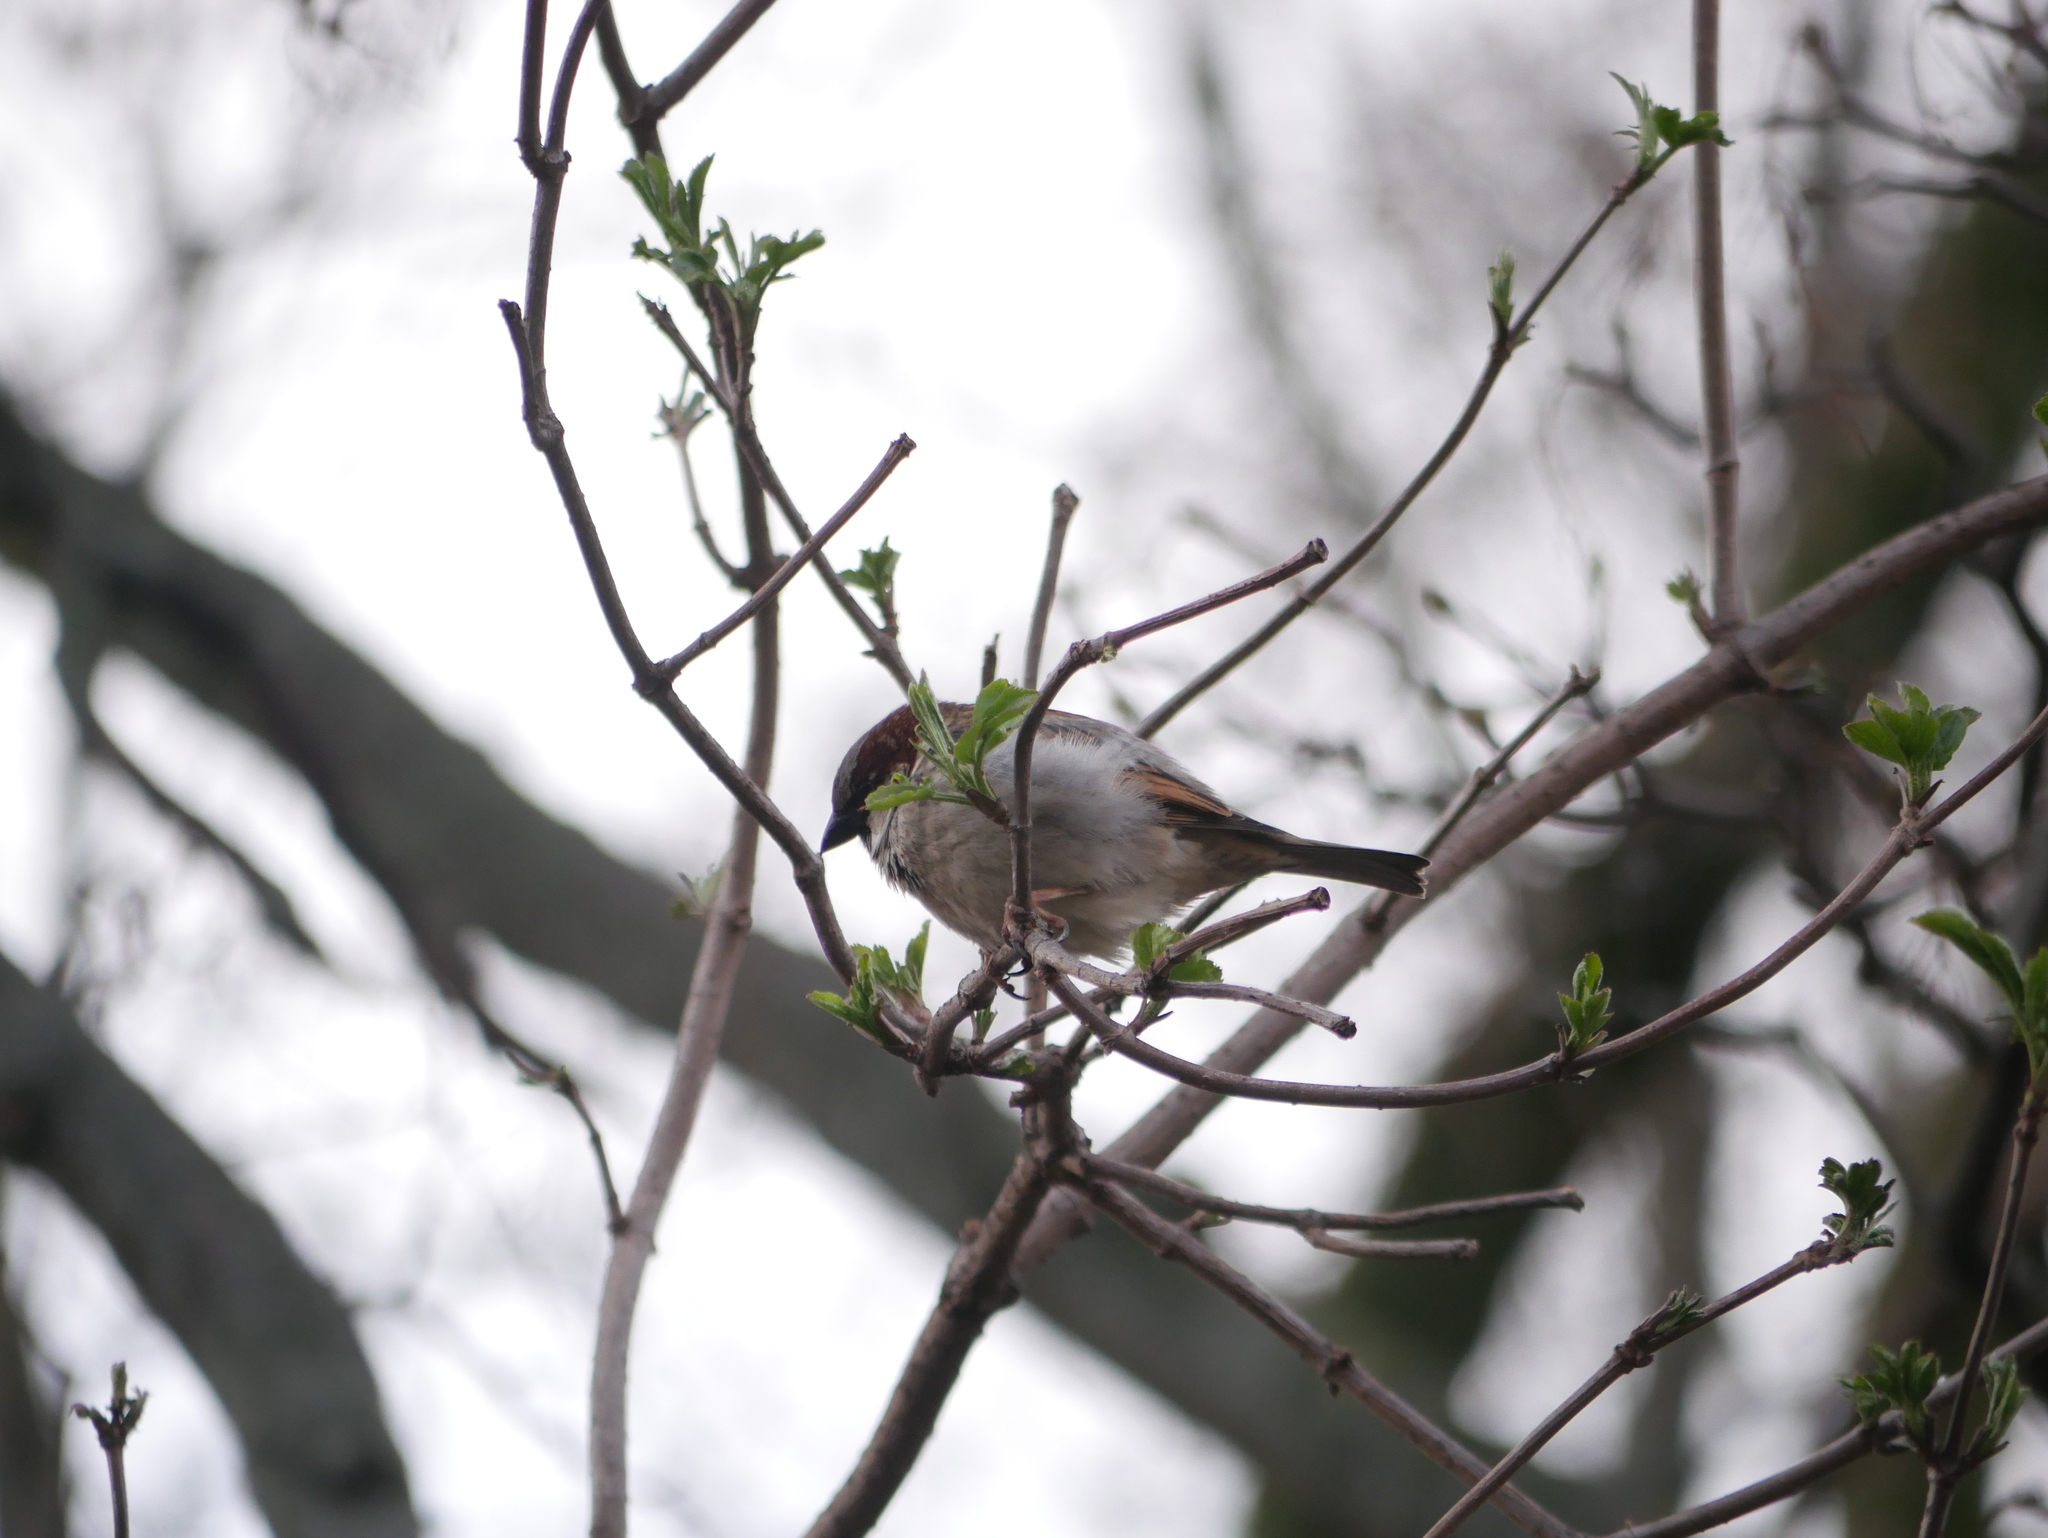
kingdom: Animalia
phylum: Chordata
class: Aves
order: Passeriformes
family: Passeridae
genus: Passer
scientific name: Passer domesticus
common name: House sparrow
